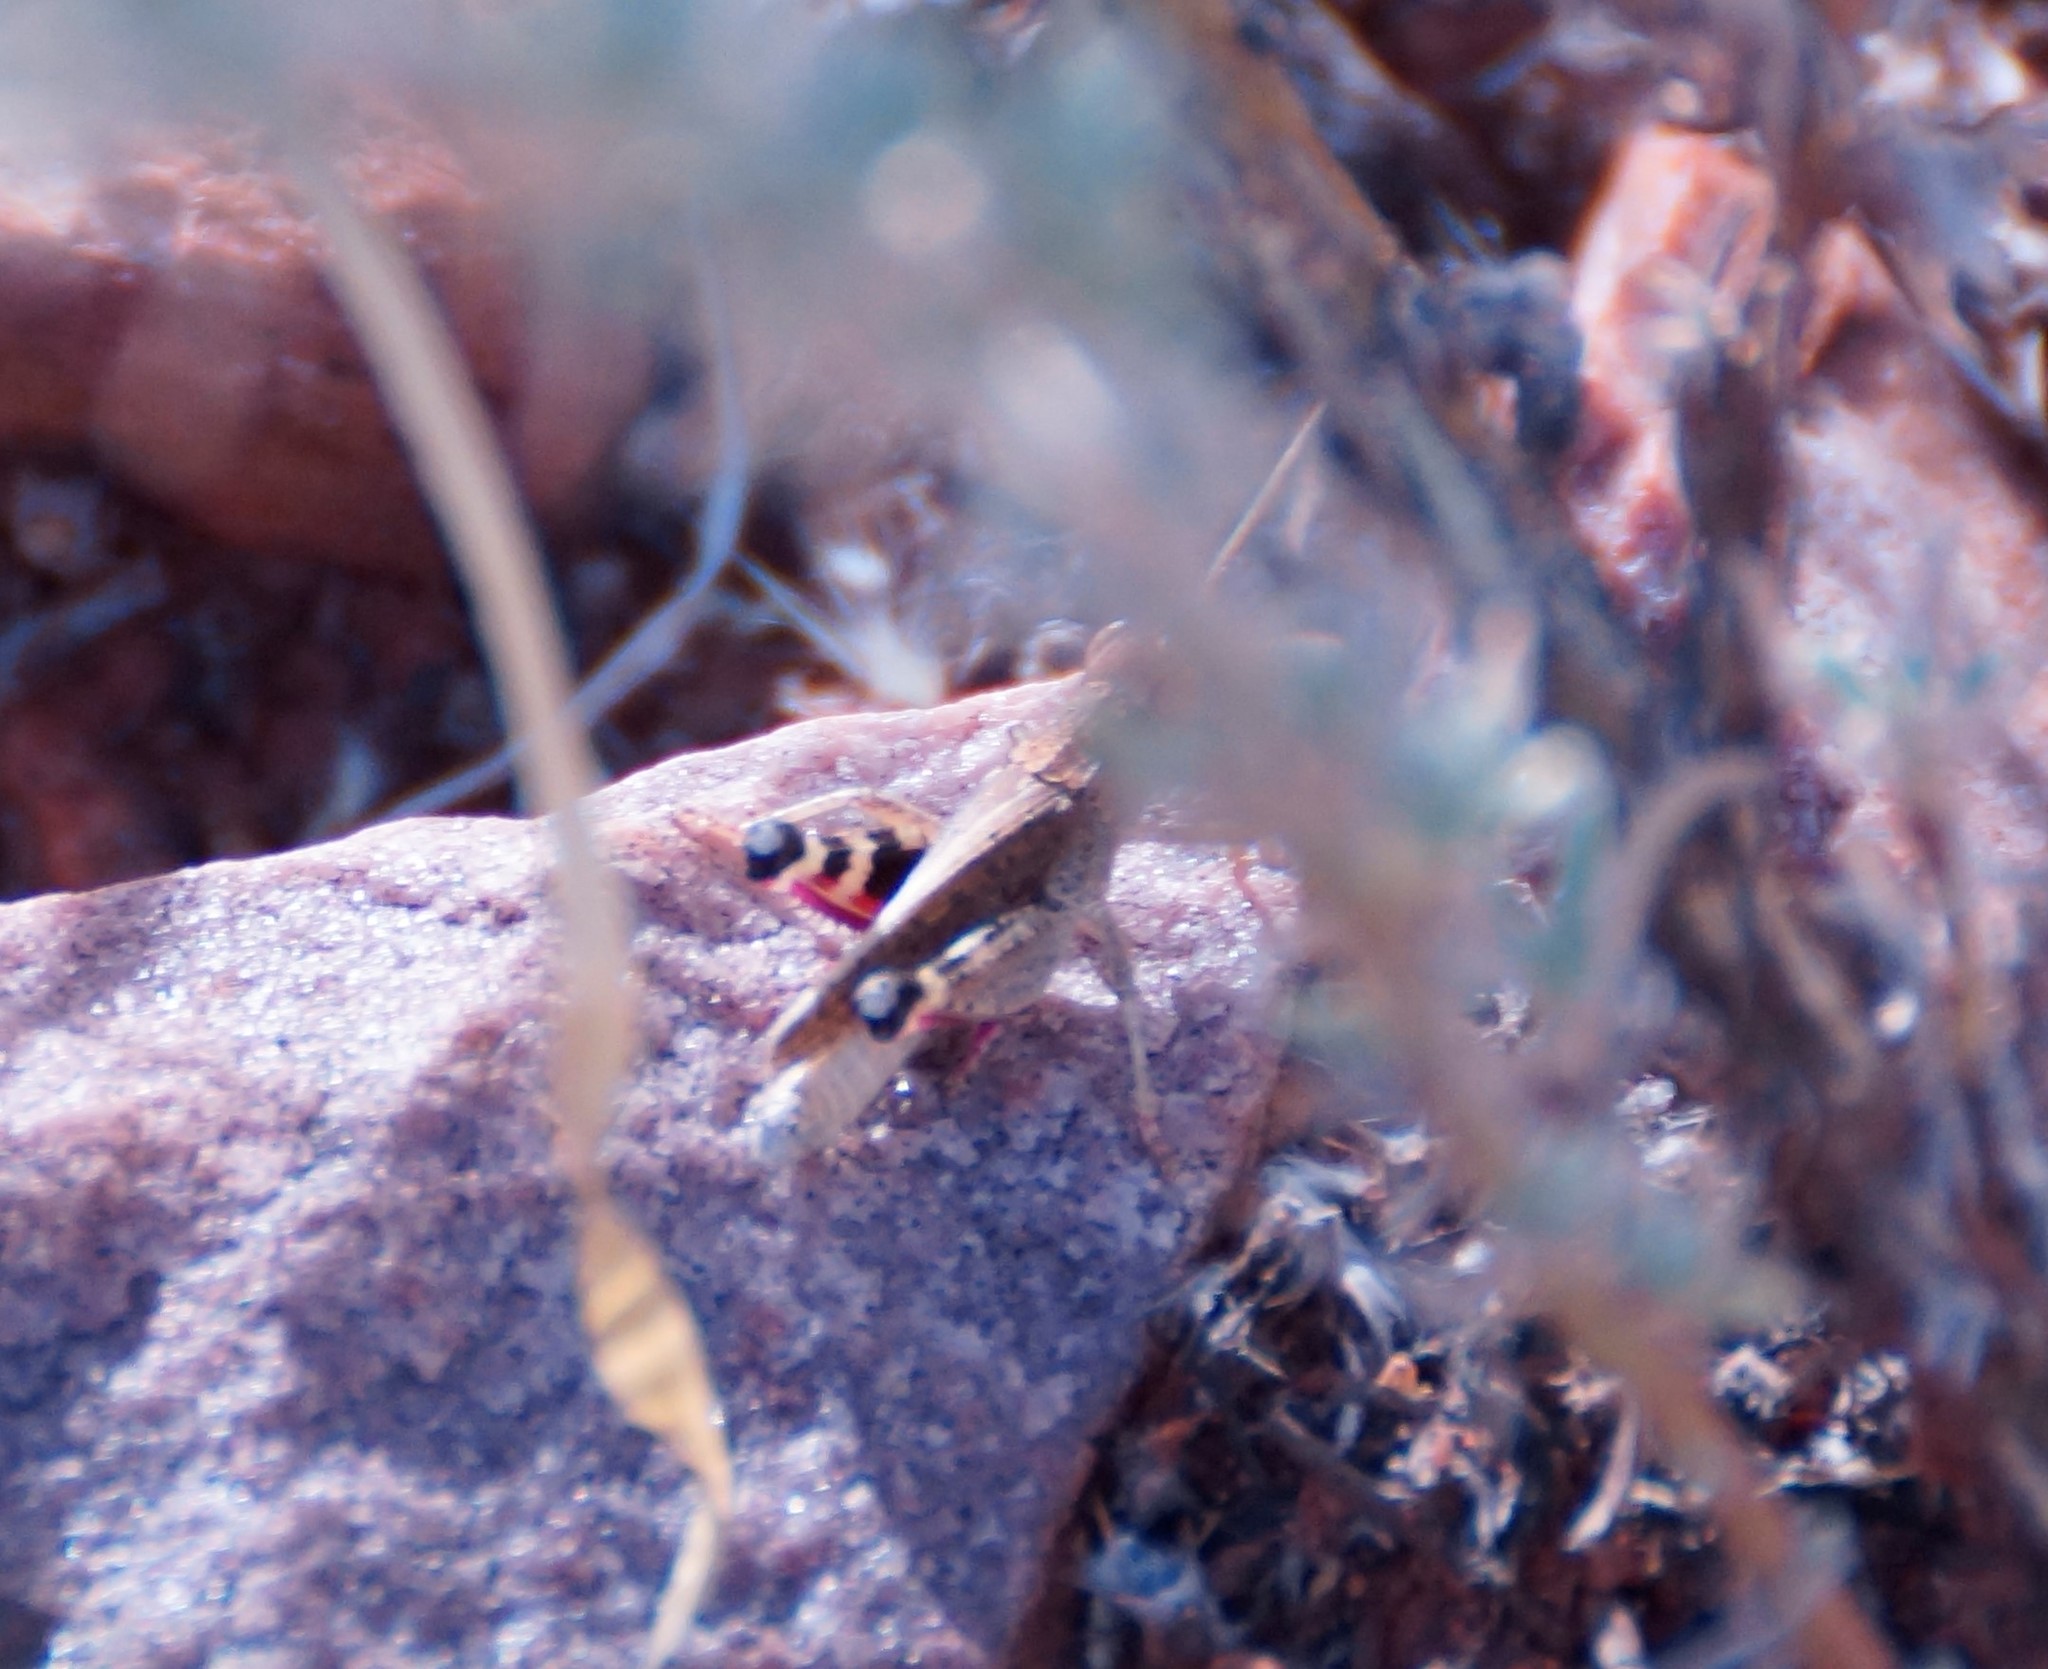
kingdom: Animalia
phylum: Arthropoda
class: Insecta
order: Orthoptera
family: Acrididae
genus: Peakesia
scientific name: Peakesia vitripennis
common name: Plain peakesia
